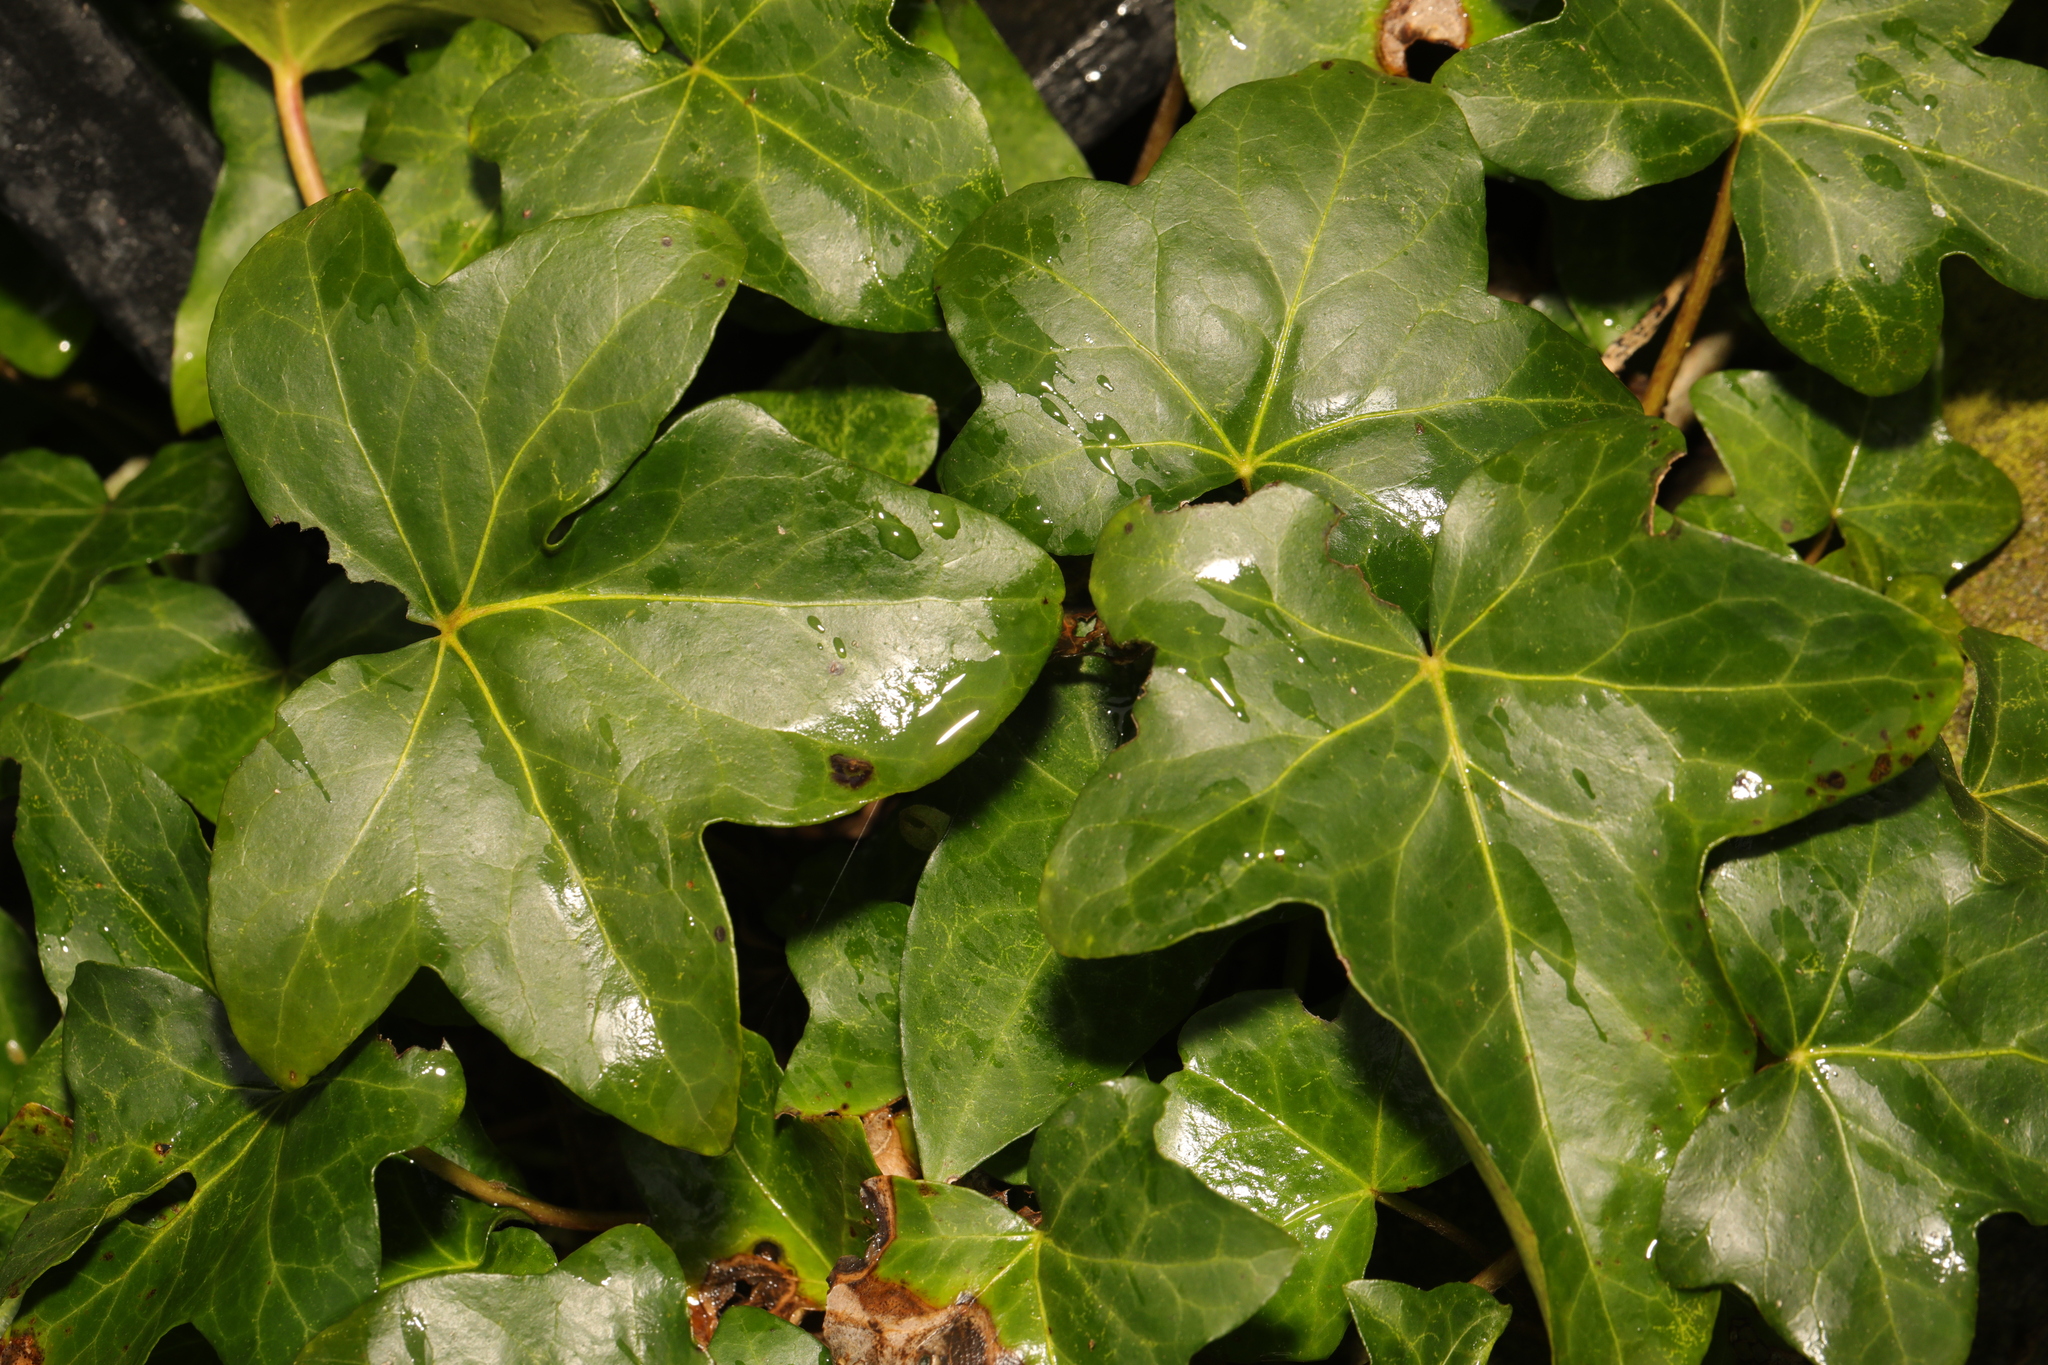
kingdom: Plantae
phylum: Tracheophyta
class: Magnoliopsida
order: Apiales
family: Araliaceae
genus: Hedera
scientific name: Hedera helix
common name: Ivy
